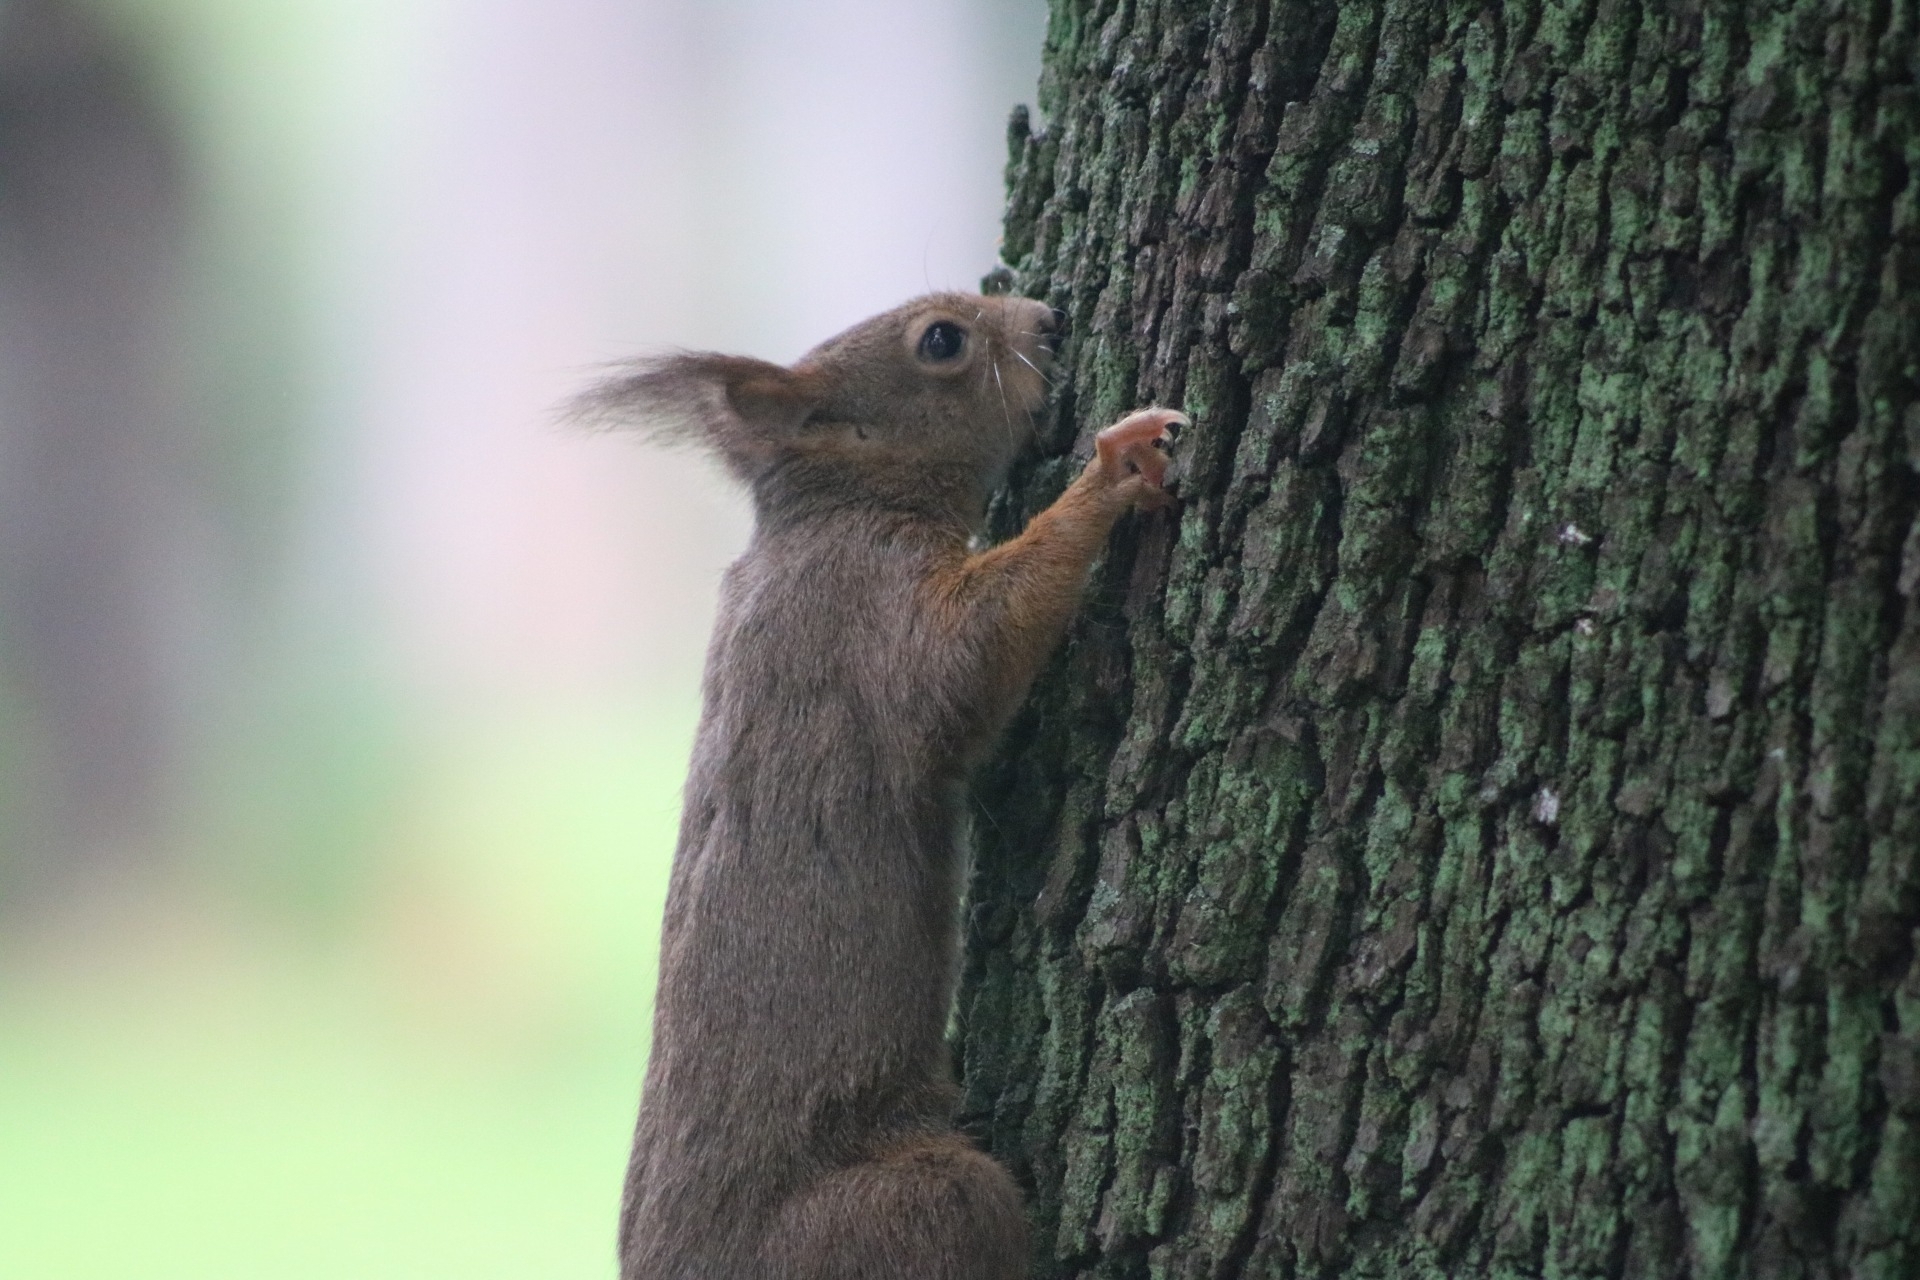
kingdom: Animalia
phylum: Chordata
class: Mammalia
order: Rodentia
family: Sciuridae
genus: Sciurus
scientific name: Sciurus vulgaris
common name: Eurasian red squirrel
